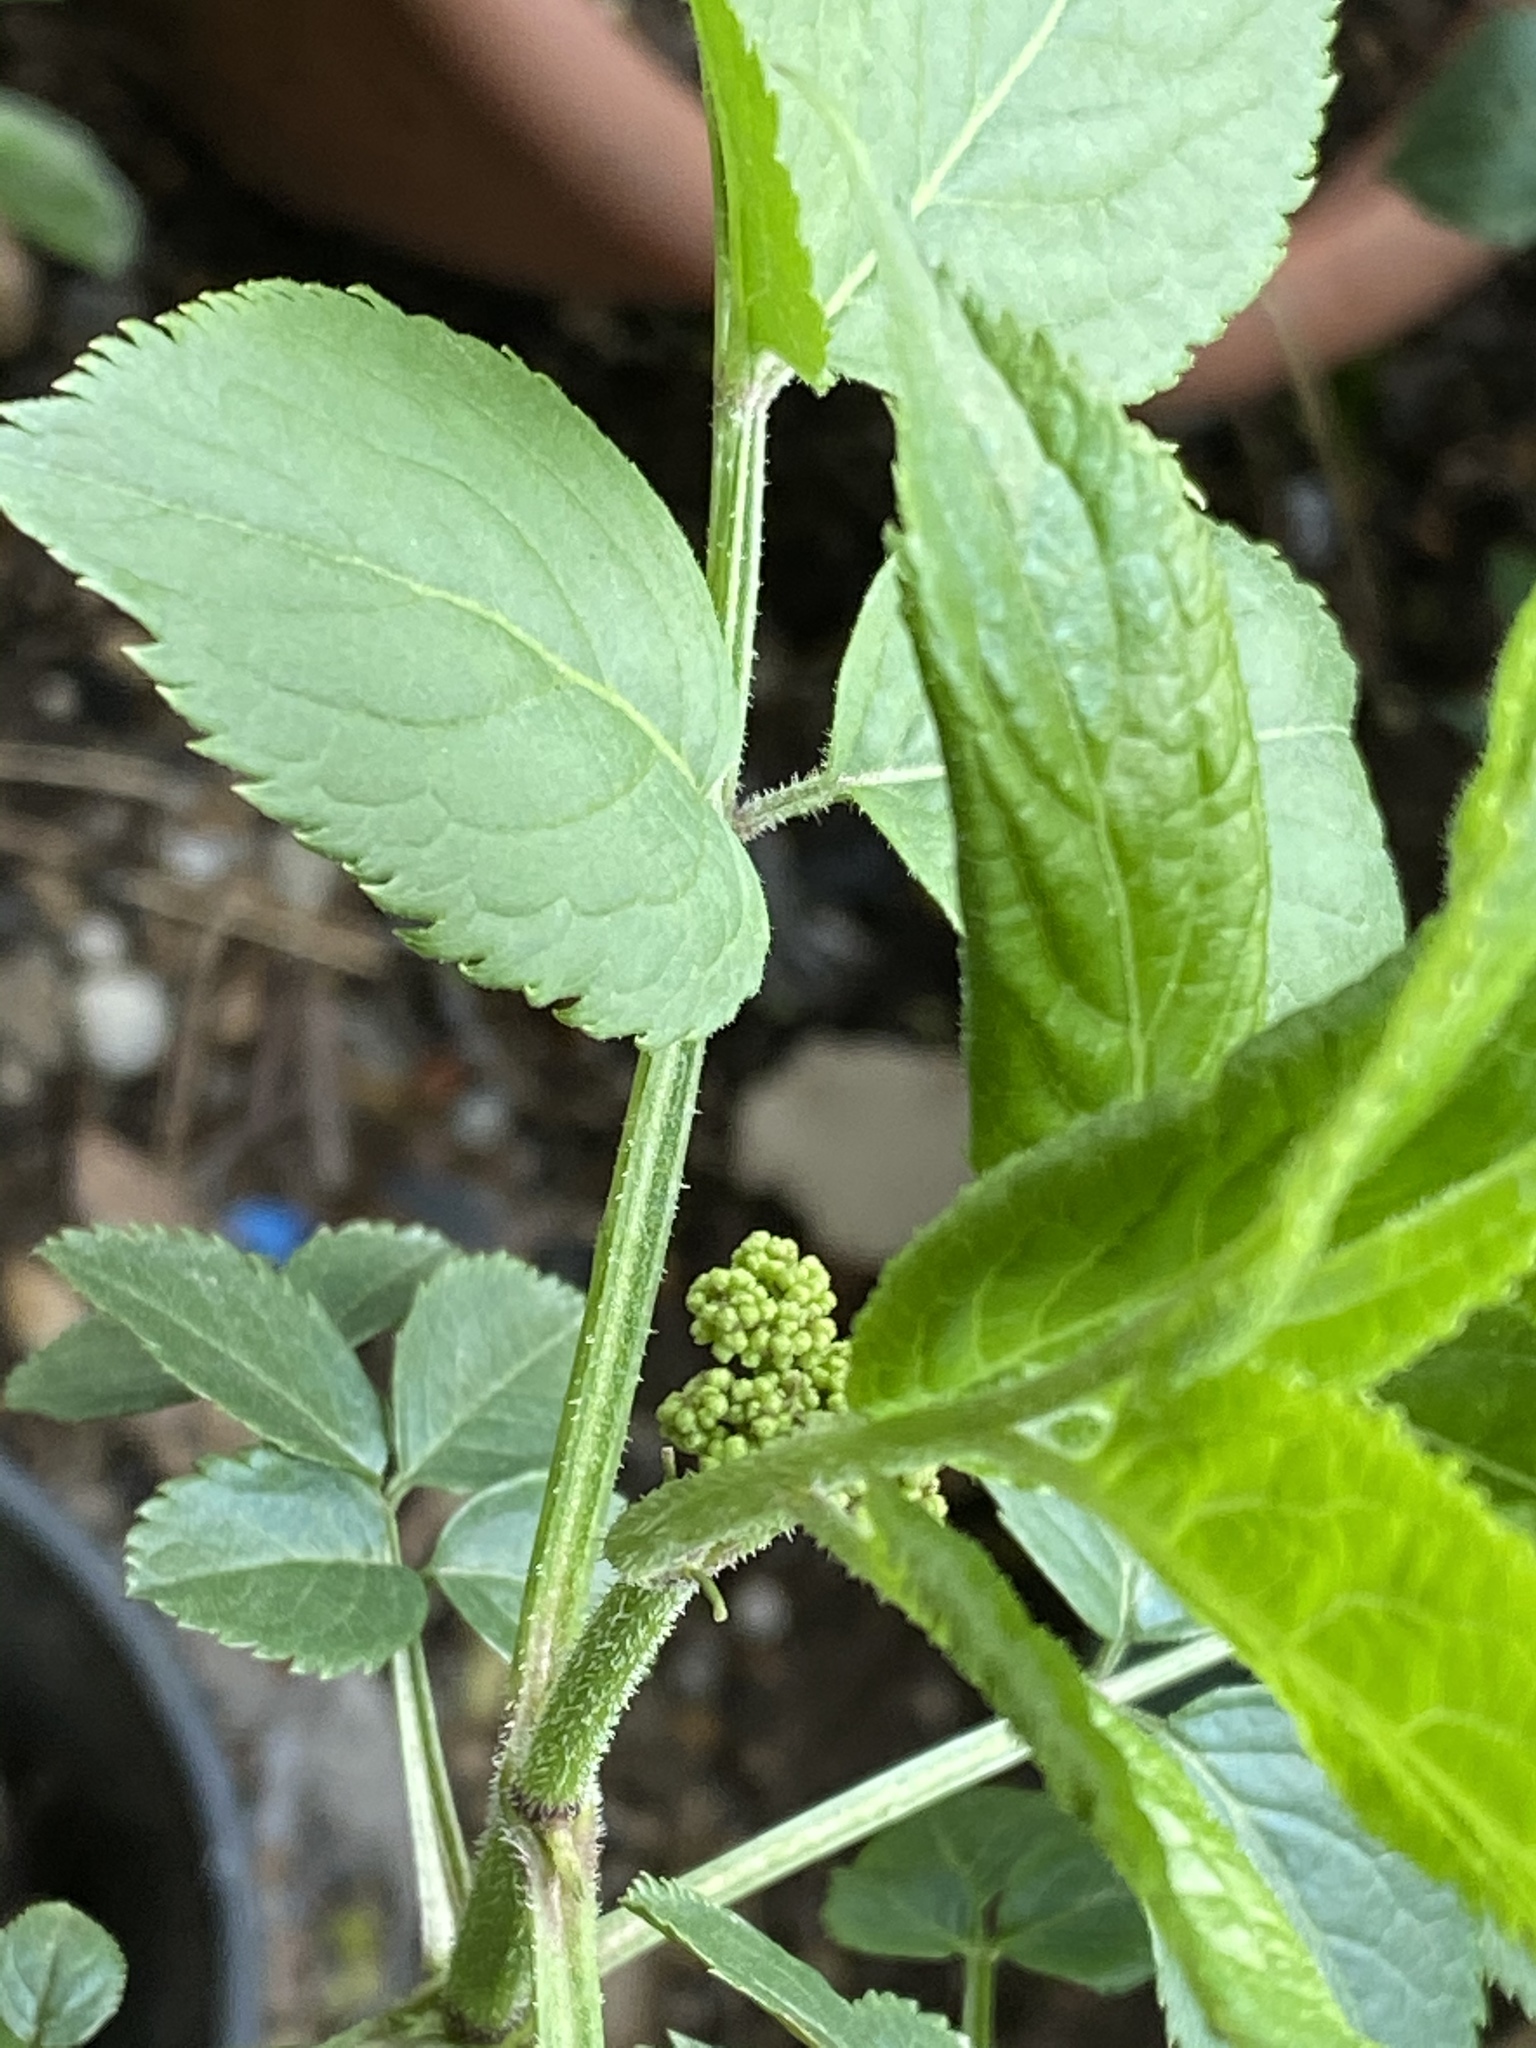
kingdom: Plantae
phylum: Tracheophyta
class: Magnoliopsida
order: Dipsacales
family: Viburnaceae
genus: Sambucus
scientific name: Sambucus nigra
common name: Elder
